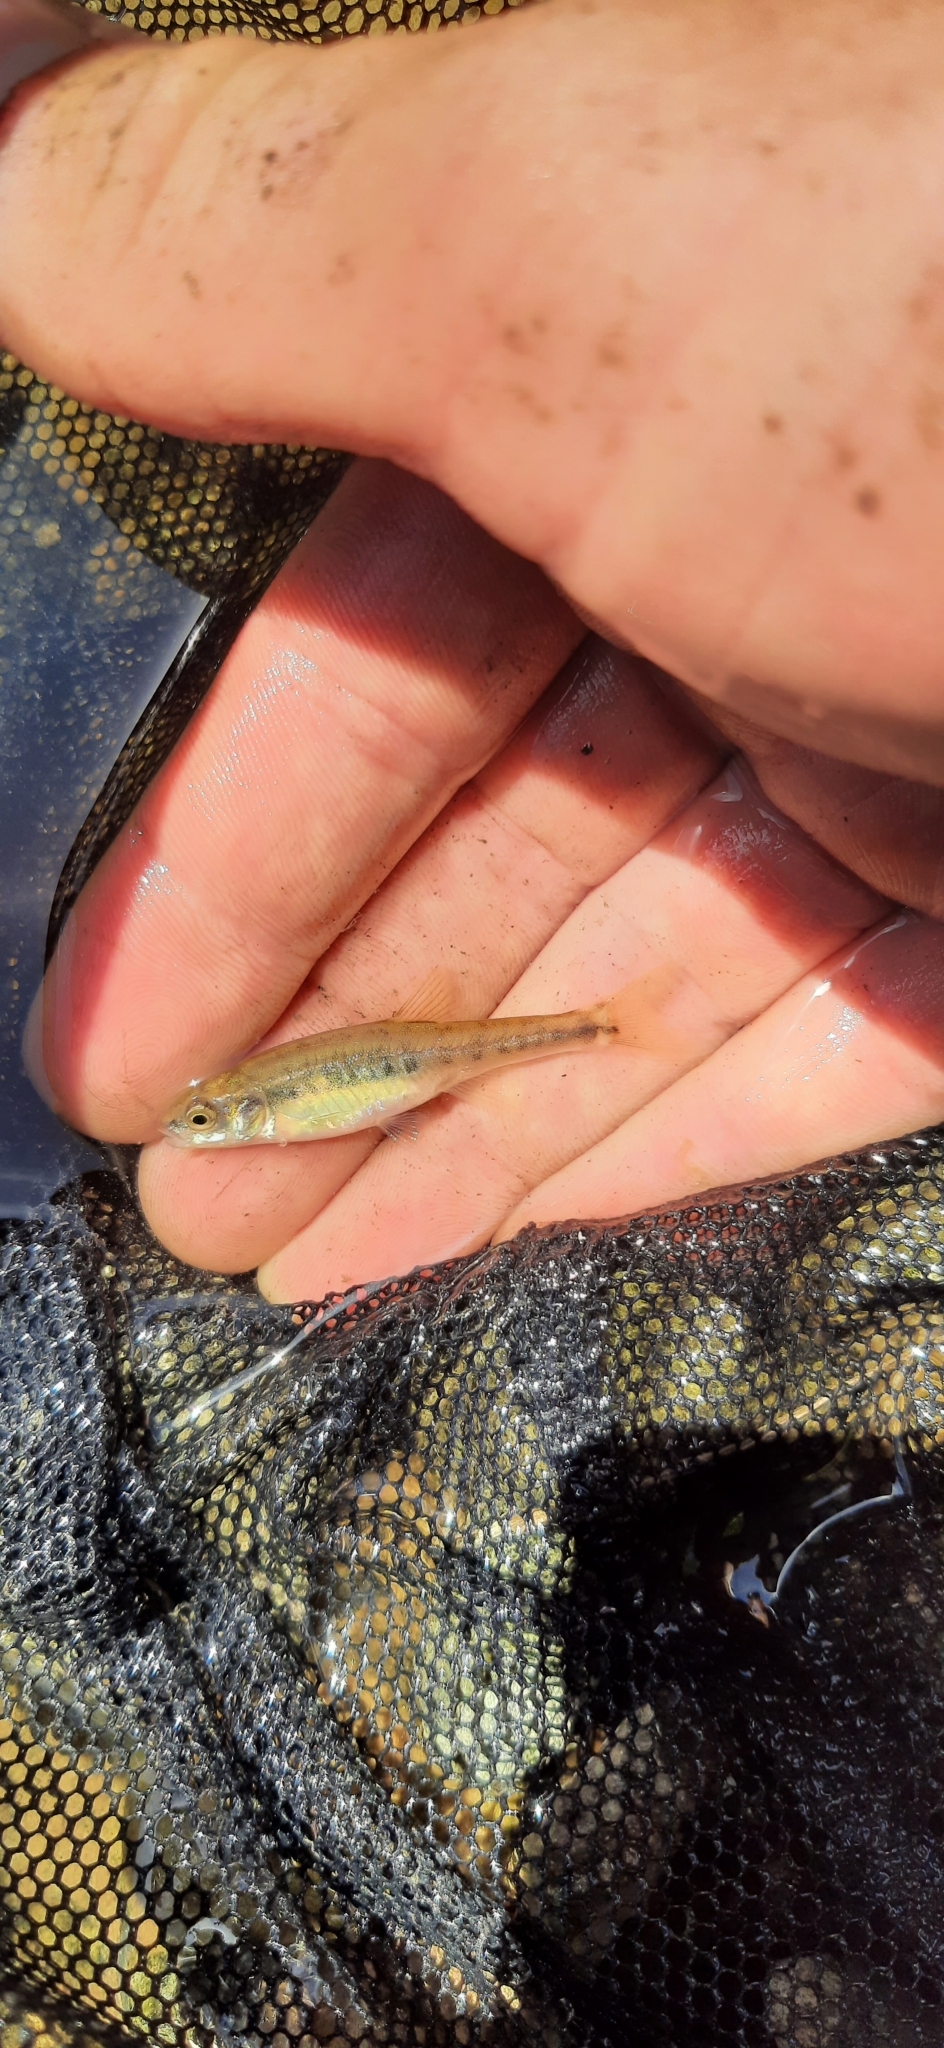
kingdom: Animalia
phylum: Chordata
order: Cypriniformes
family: Cyprinidae
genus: Phoxinus
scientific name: Phoxinus phoxinus
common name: Minnow
